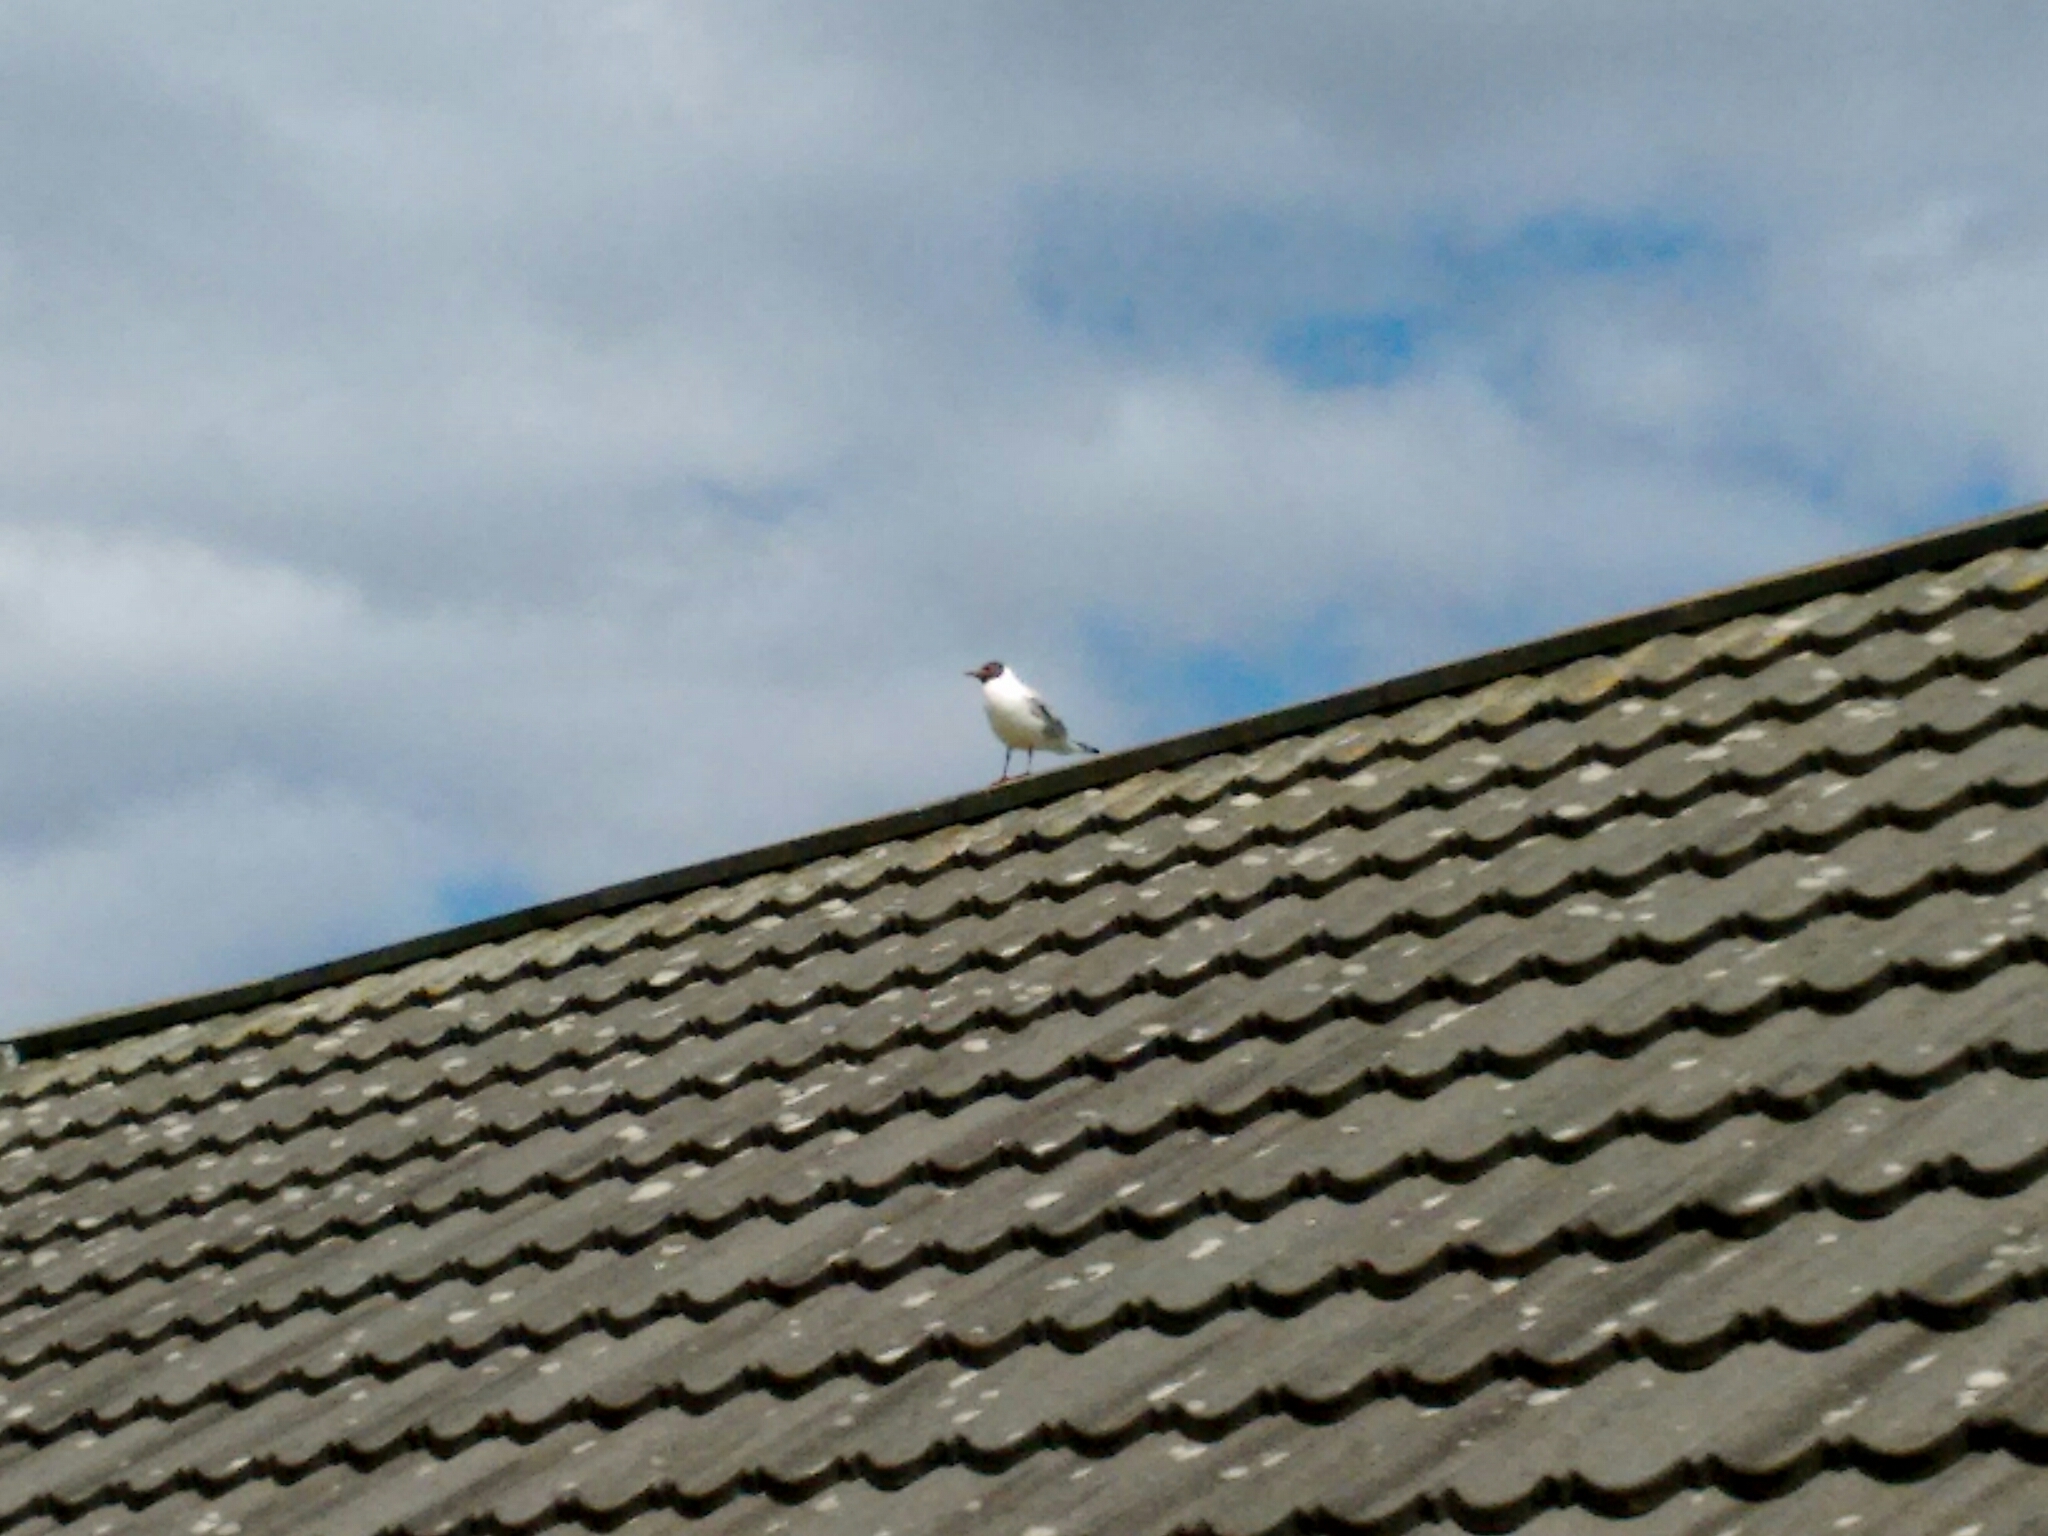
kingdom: Animalia
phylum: Chordata
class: Aves
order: Charadriiformes
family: Laridae
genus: Chroicocephalus
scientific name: Chroicocephalus ridibundus
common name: Black-headed gull
